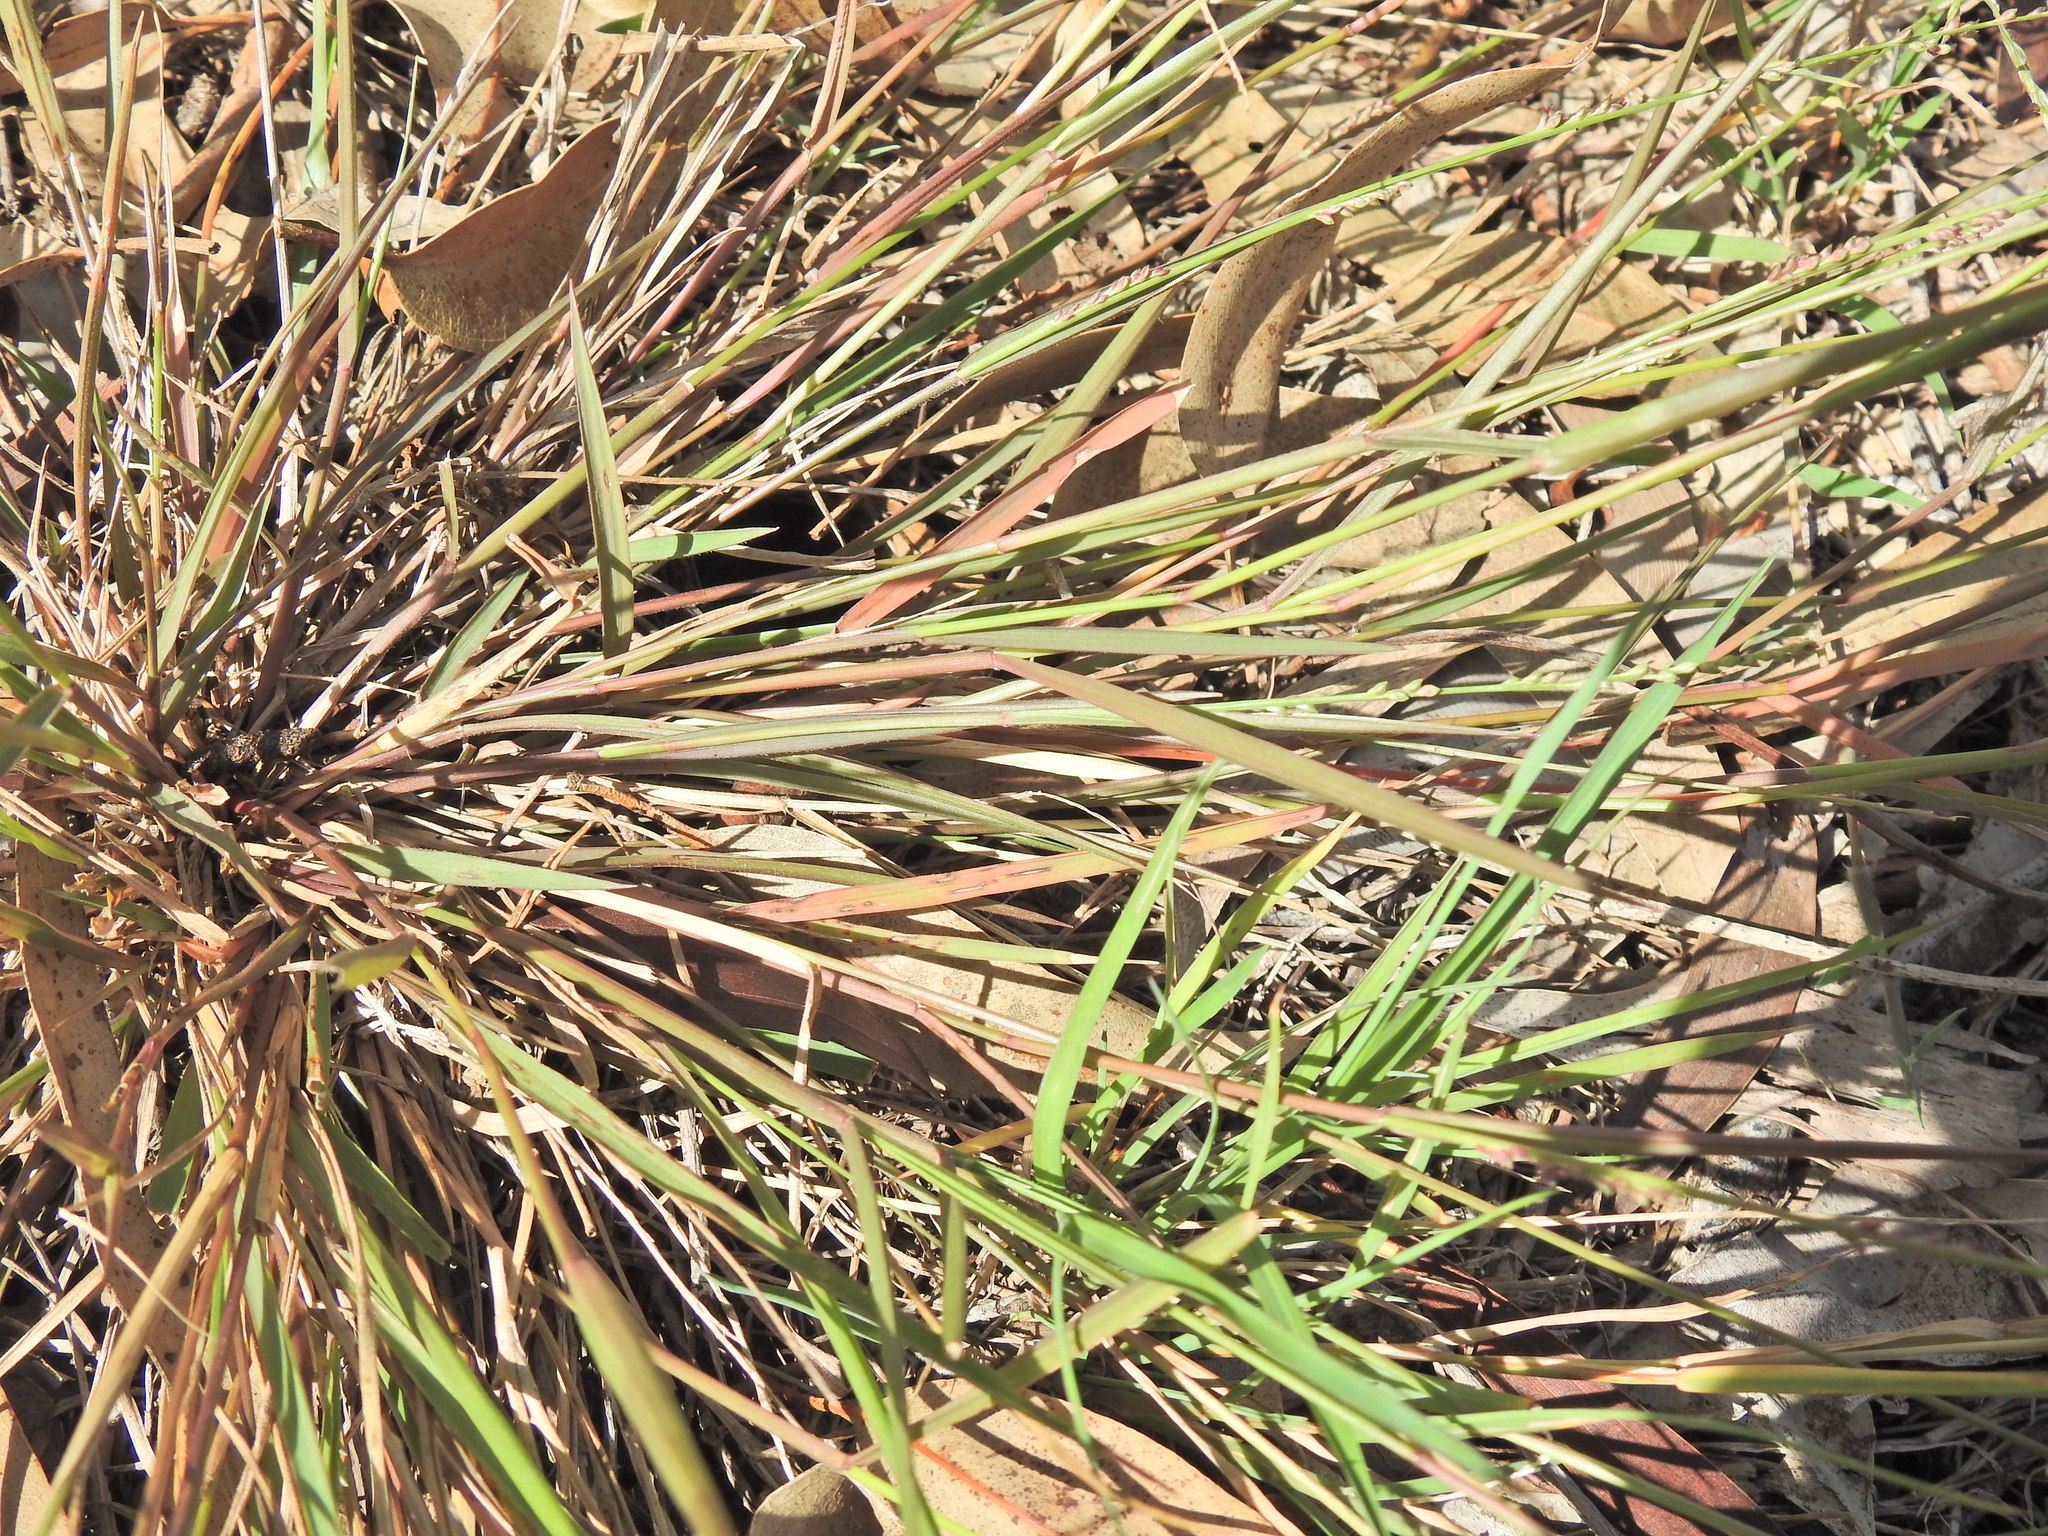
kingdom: Plantae
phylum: Tracheophyta
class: Liliopsida
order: Poales
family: Poaceae
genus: Setaria
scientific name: Setaria distans
